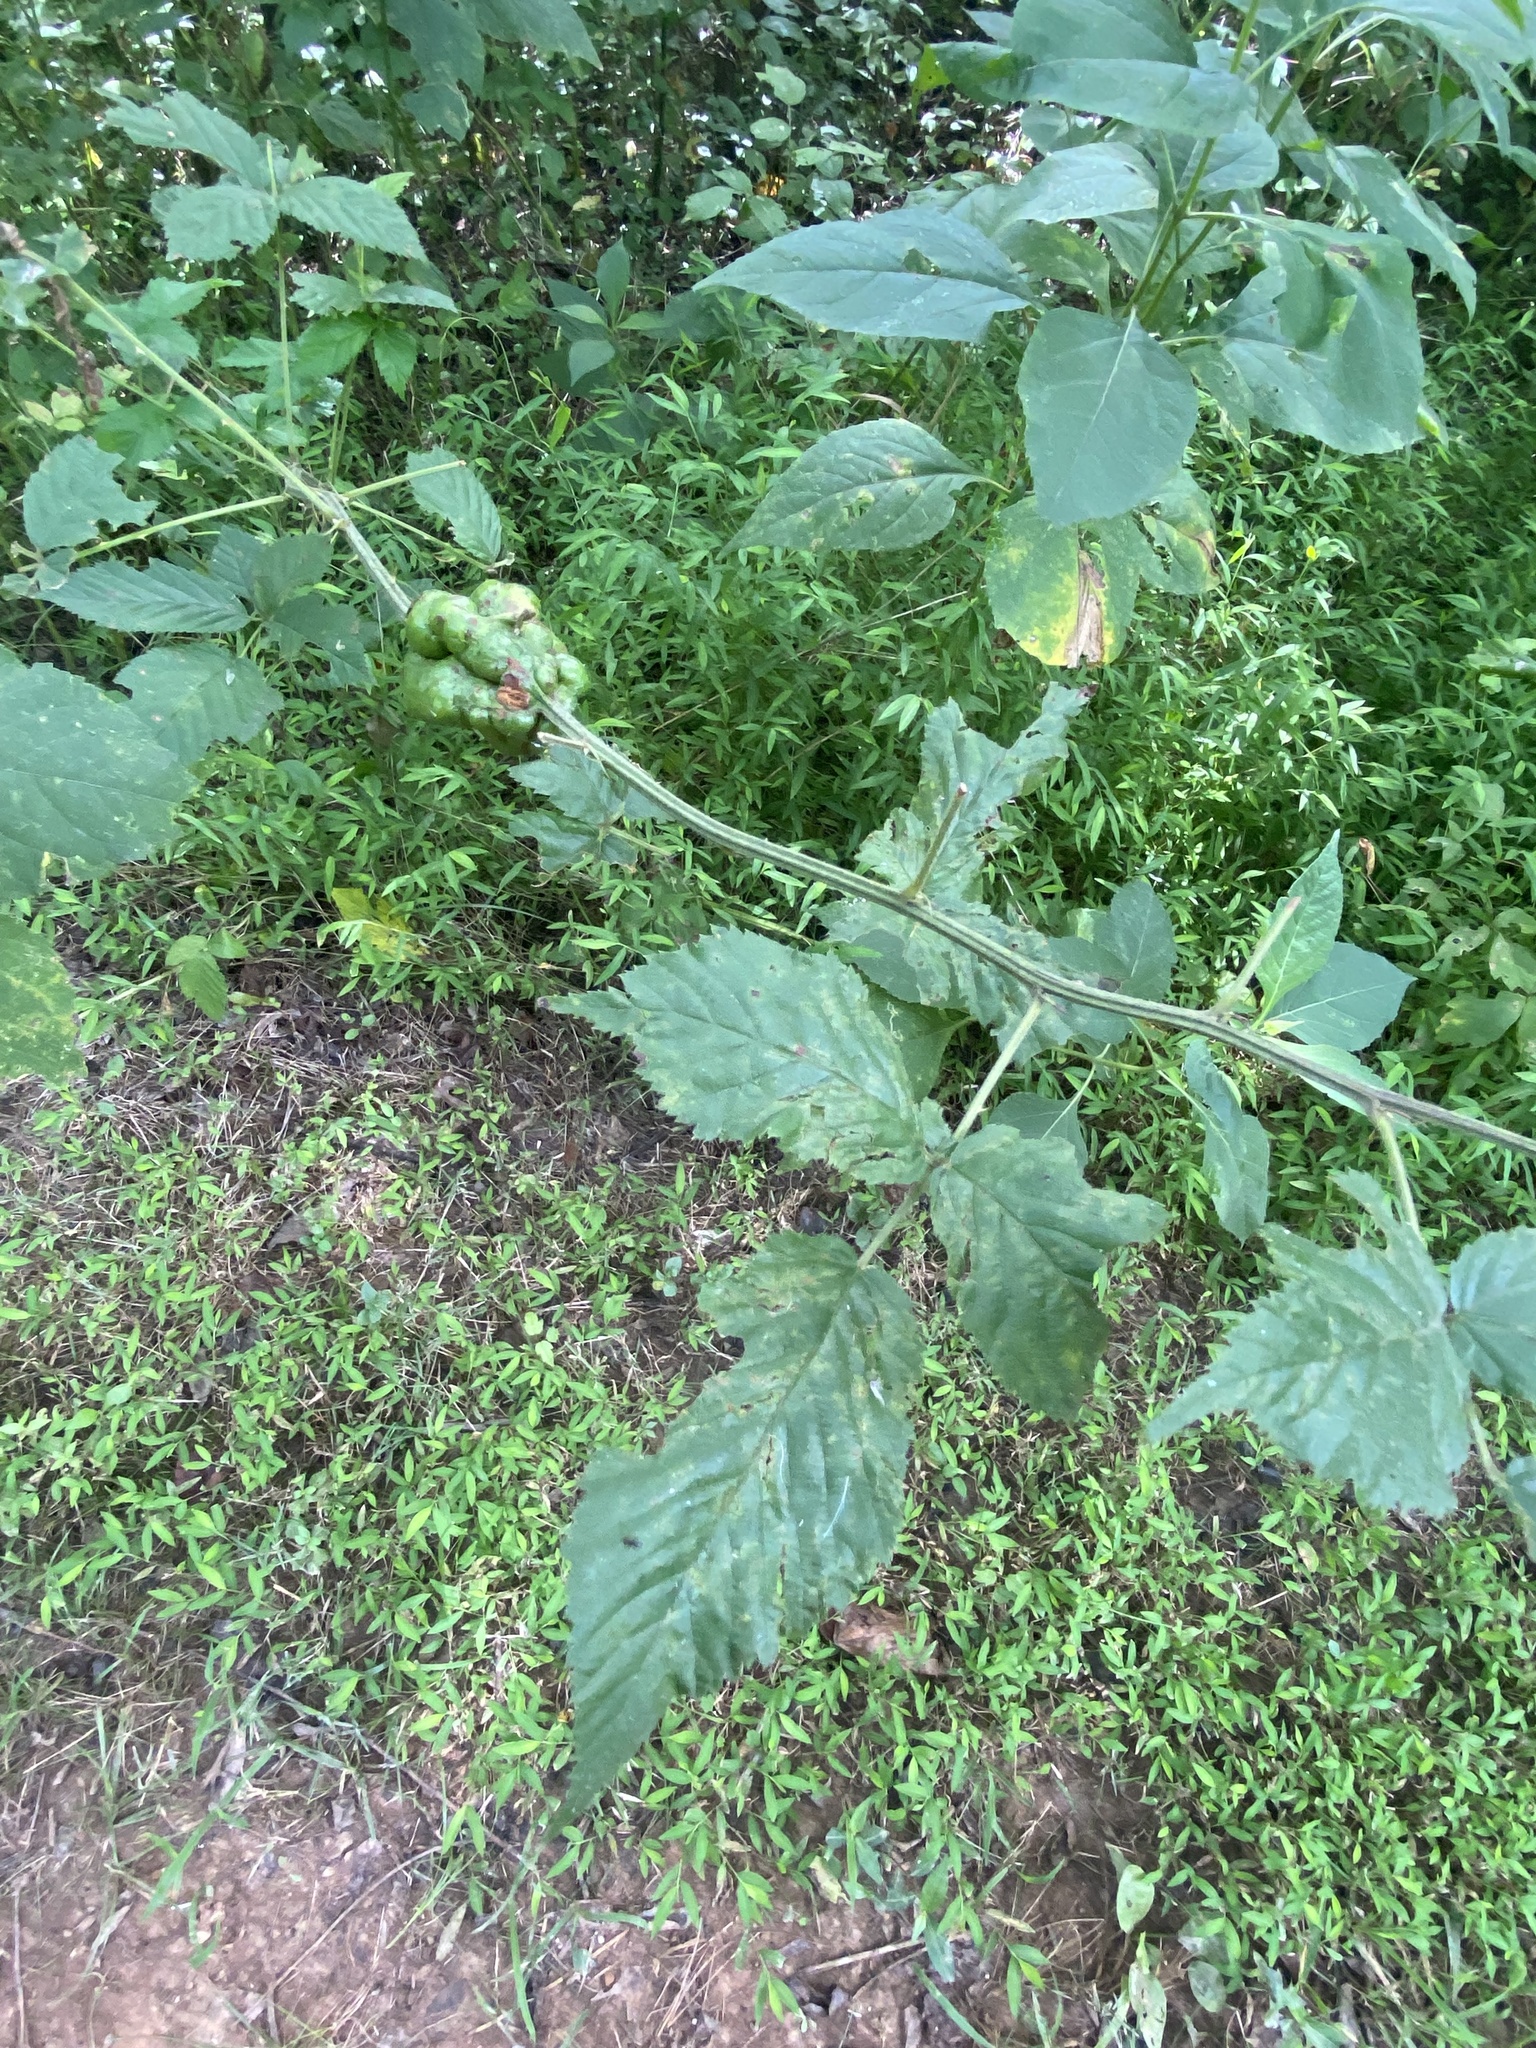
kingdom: Animalia
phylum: Arthropoda
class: Insecta
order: Hymenoptera
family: Cynipidae
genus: Diastrophus
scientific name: Diastrophus
